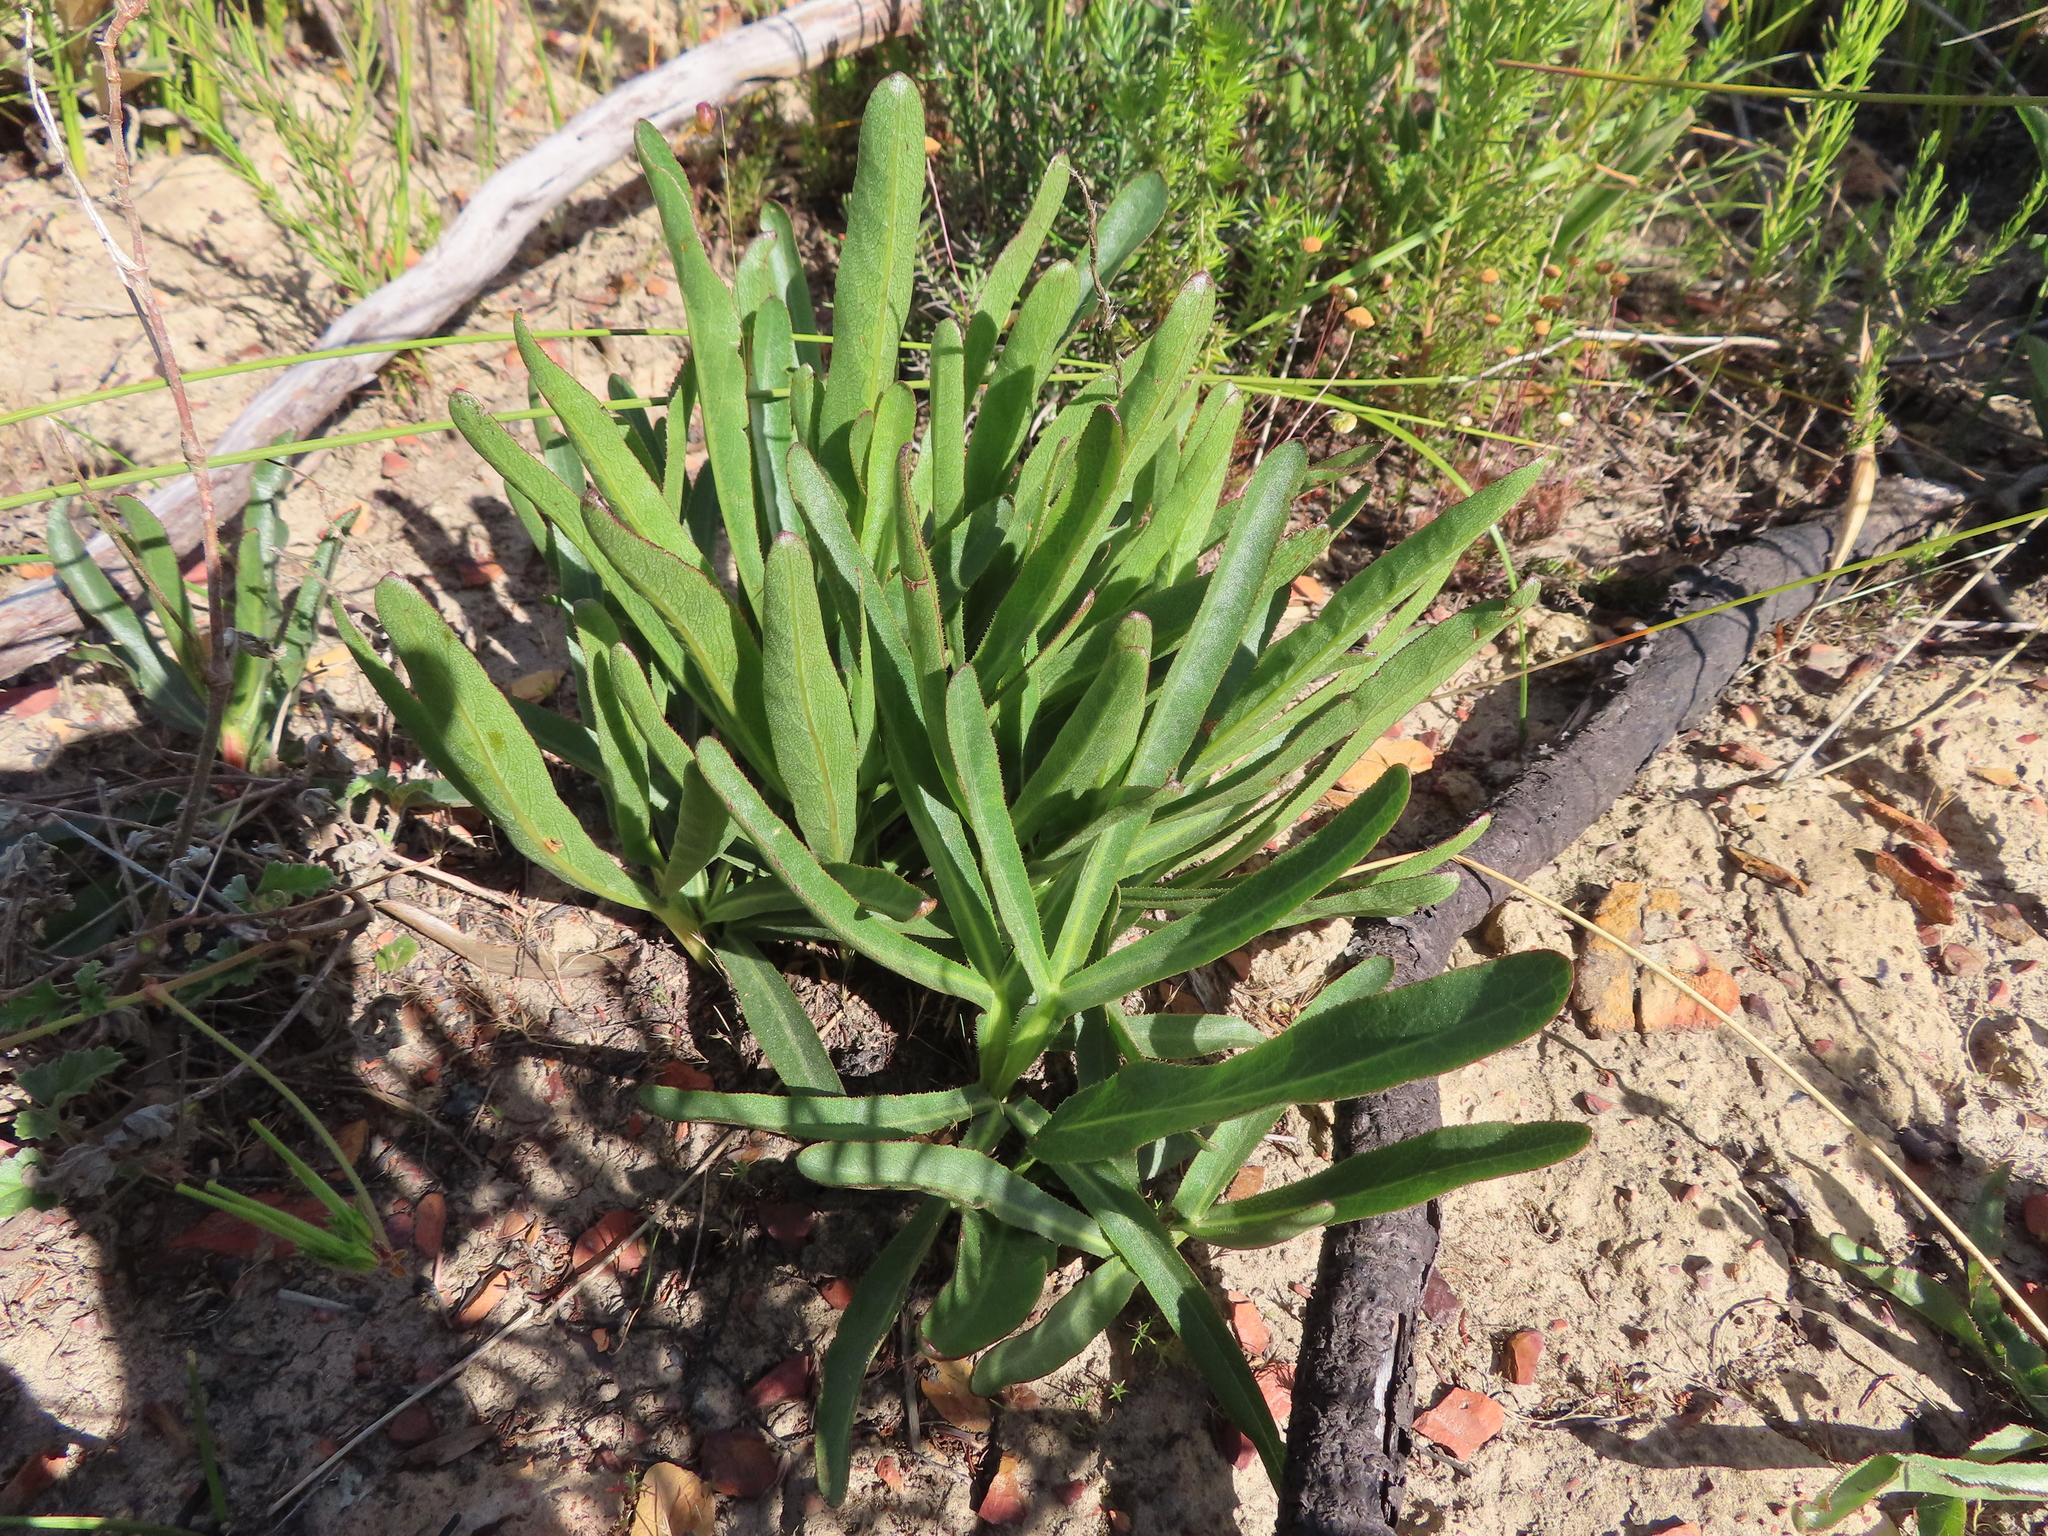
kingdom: Plantae
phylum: Tracheophyta
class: Magnoliopsida
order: Apiales
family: Apiaceae
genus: Lichtensteinia
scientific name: Lichtensteinia trifida
